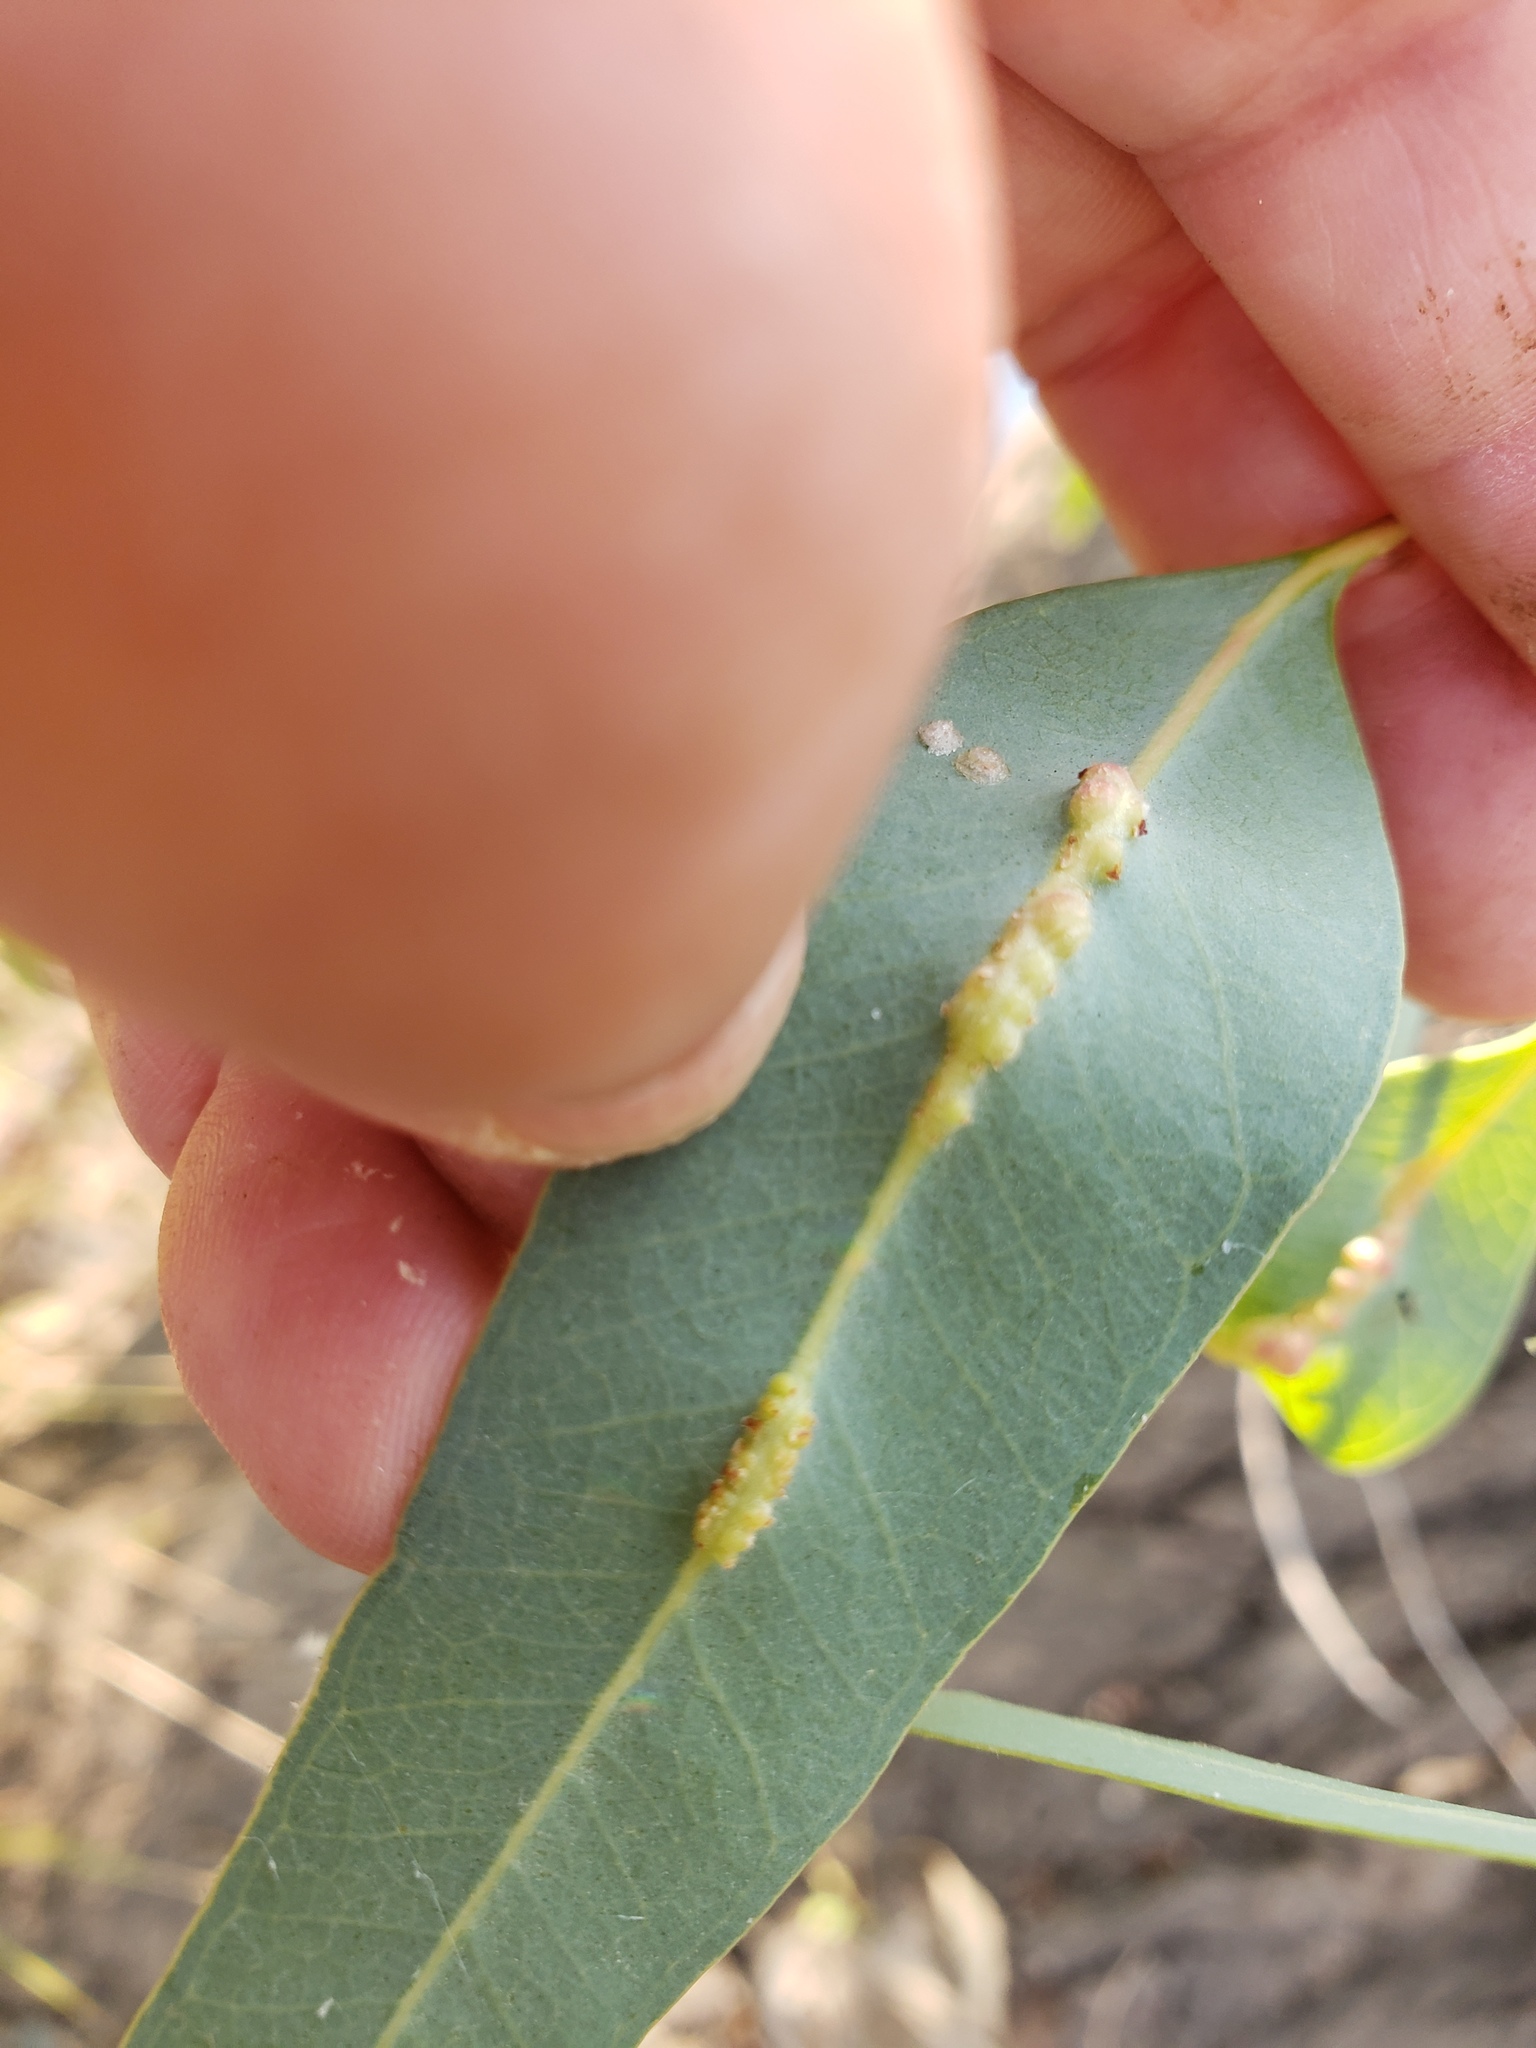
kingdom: Animalia
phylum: Arthropoda
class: Insecta
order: Hymenoptera
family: Eulophidae
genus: Leptocybe
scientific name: Leptocybe invasa
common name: Gall wasp
